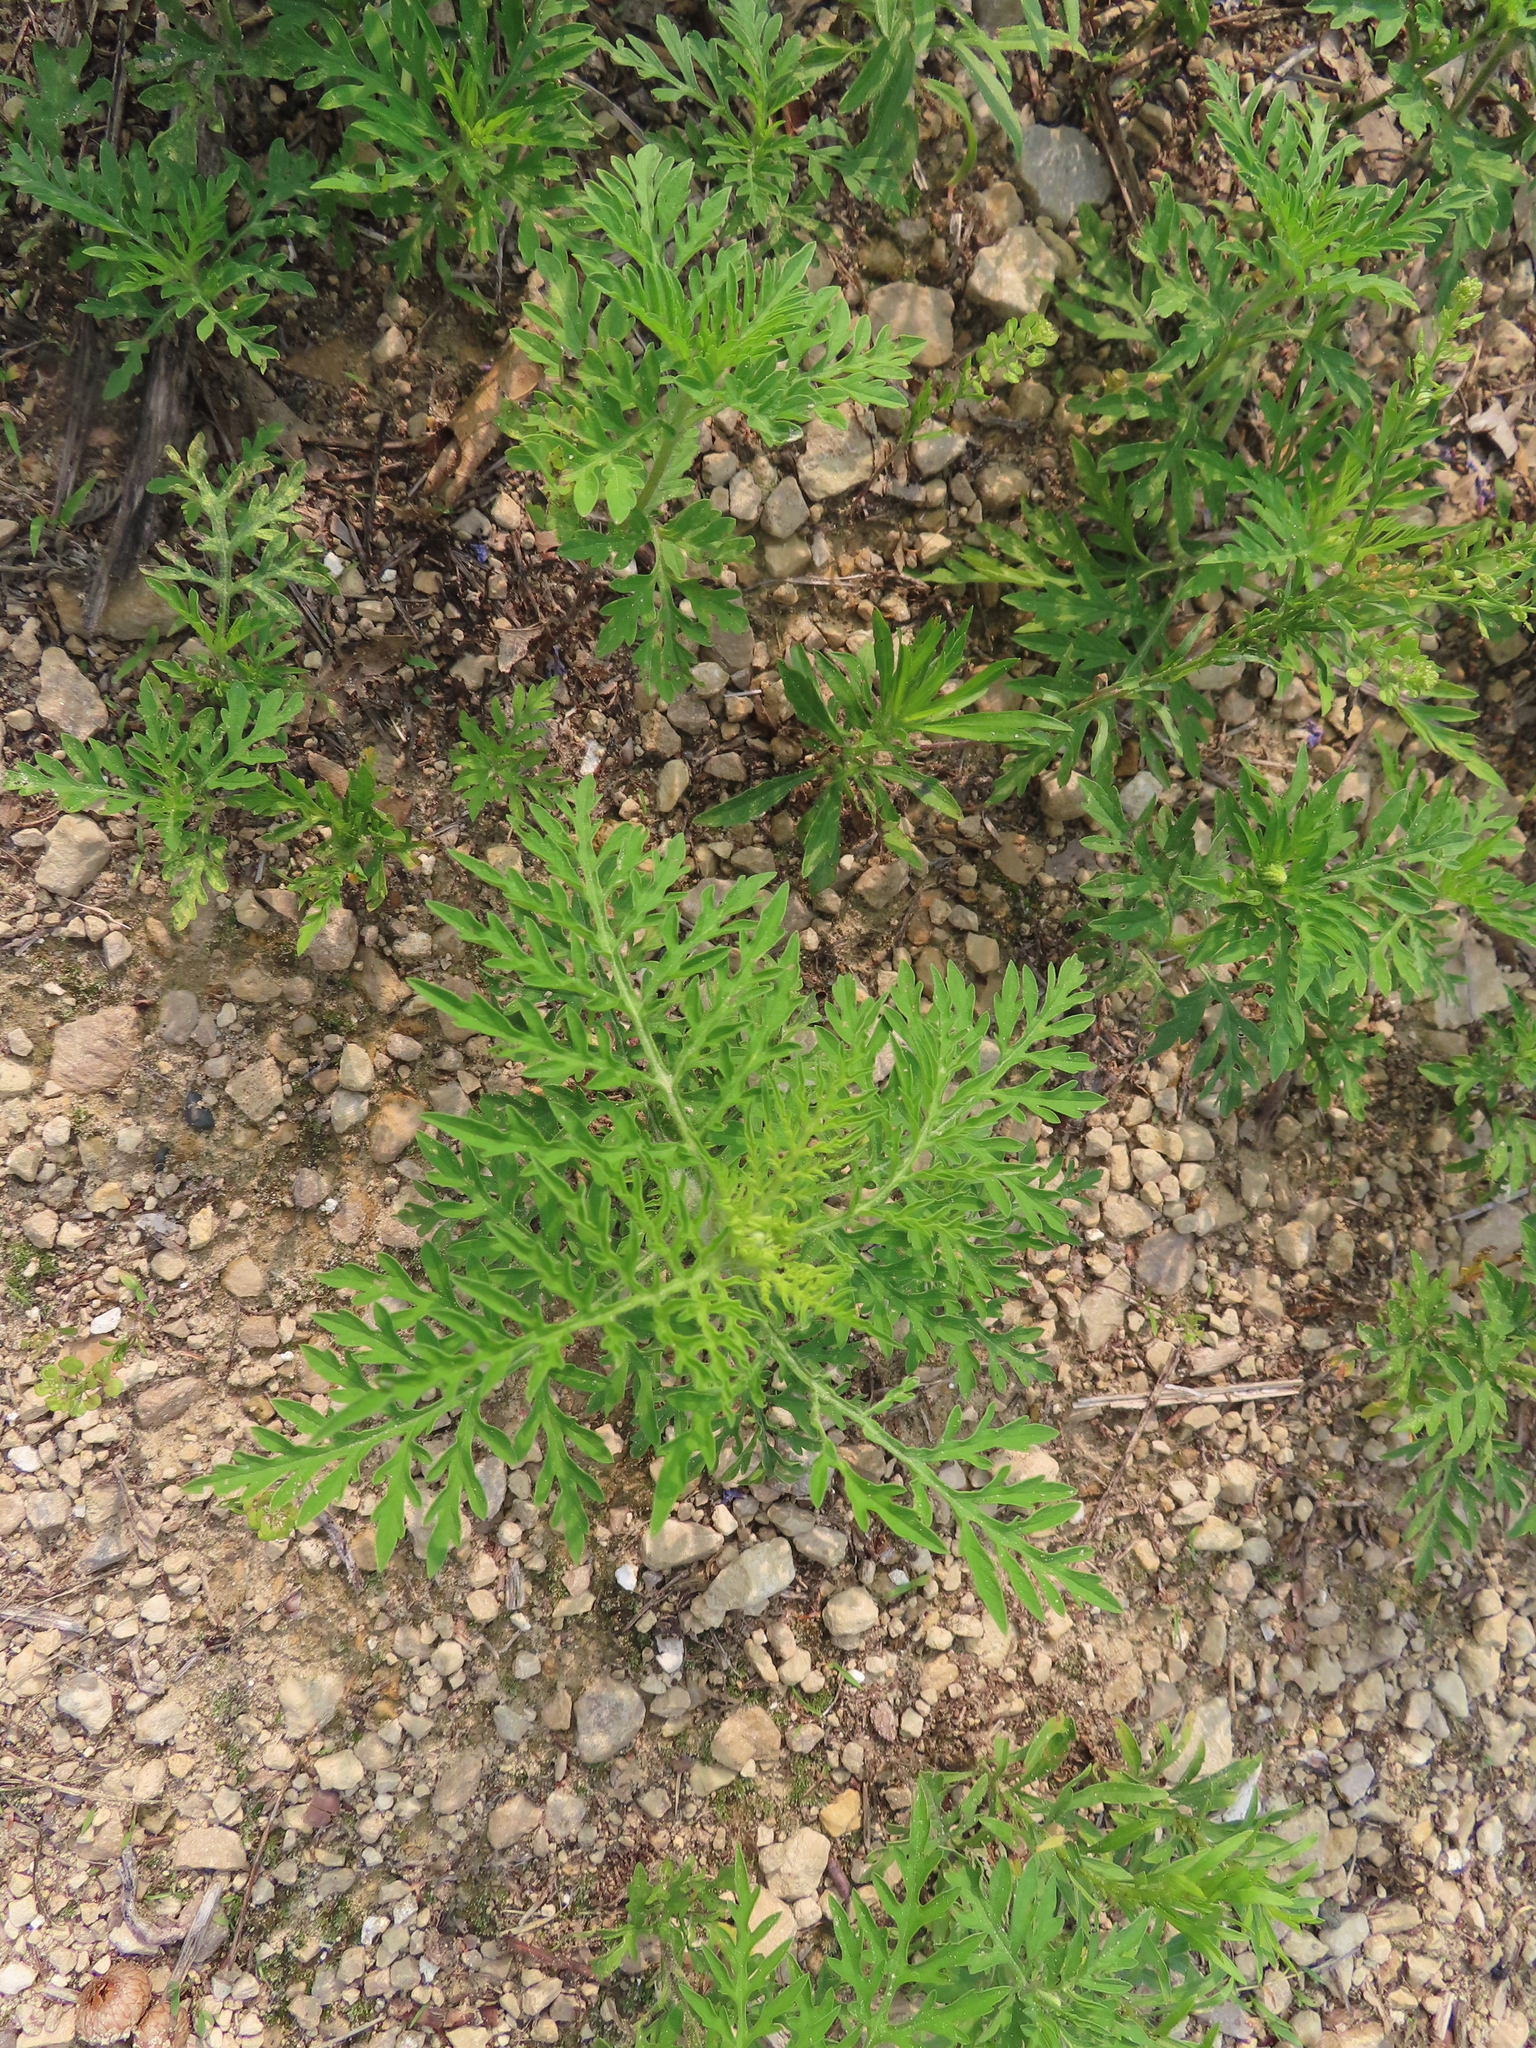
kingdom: Plantae
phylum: Tracheophyta
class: Magnoliopsida
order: Asterales
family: Asteraceae
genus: Ambrosia
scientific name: Ambrosia artemisiifolia
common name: Annual ragweed
